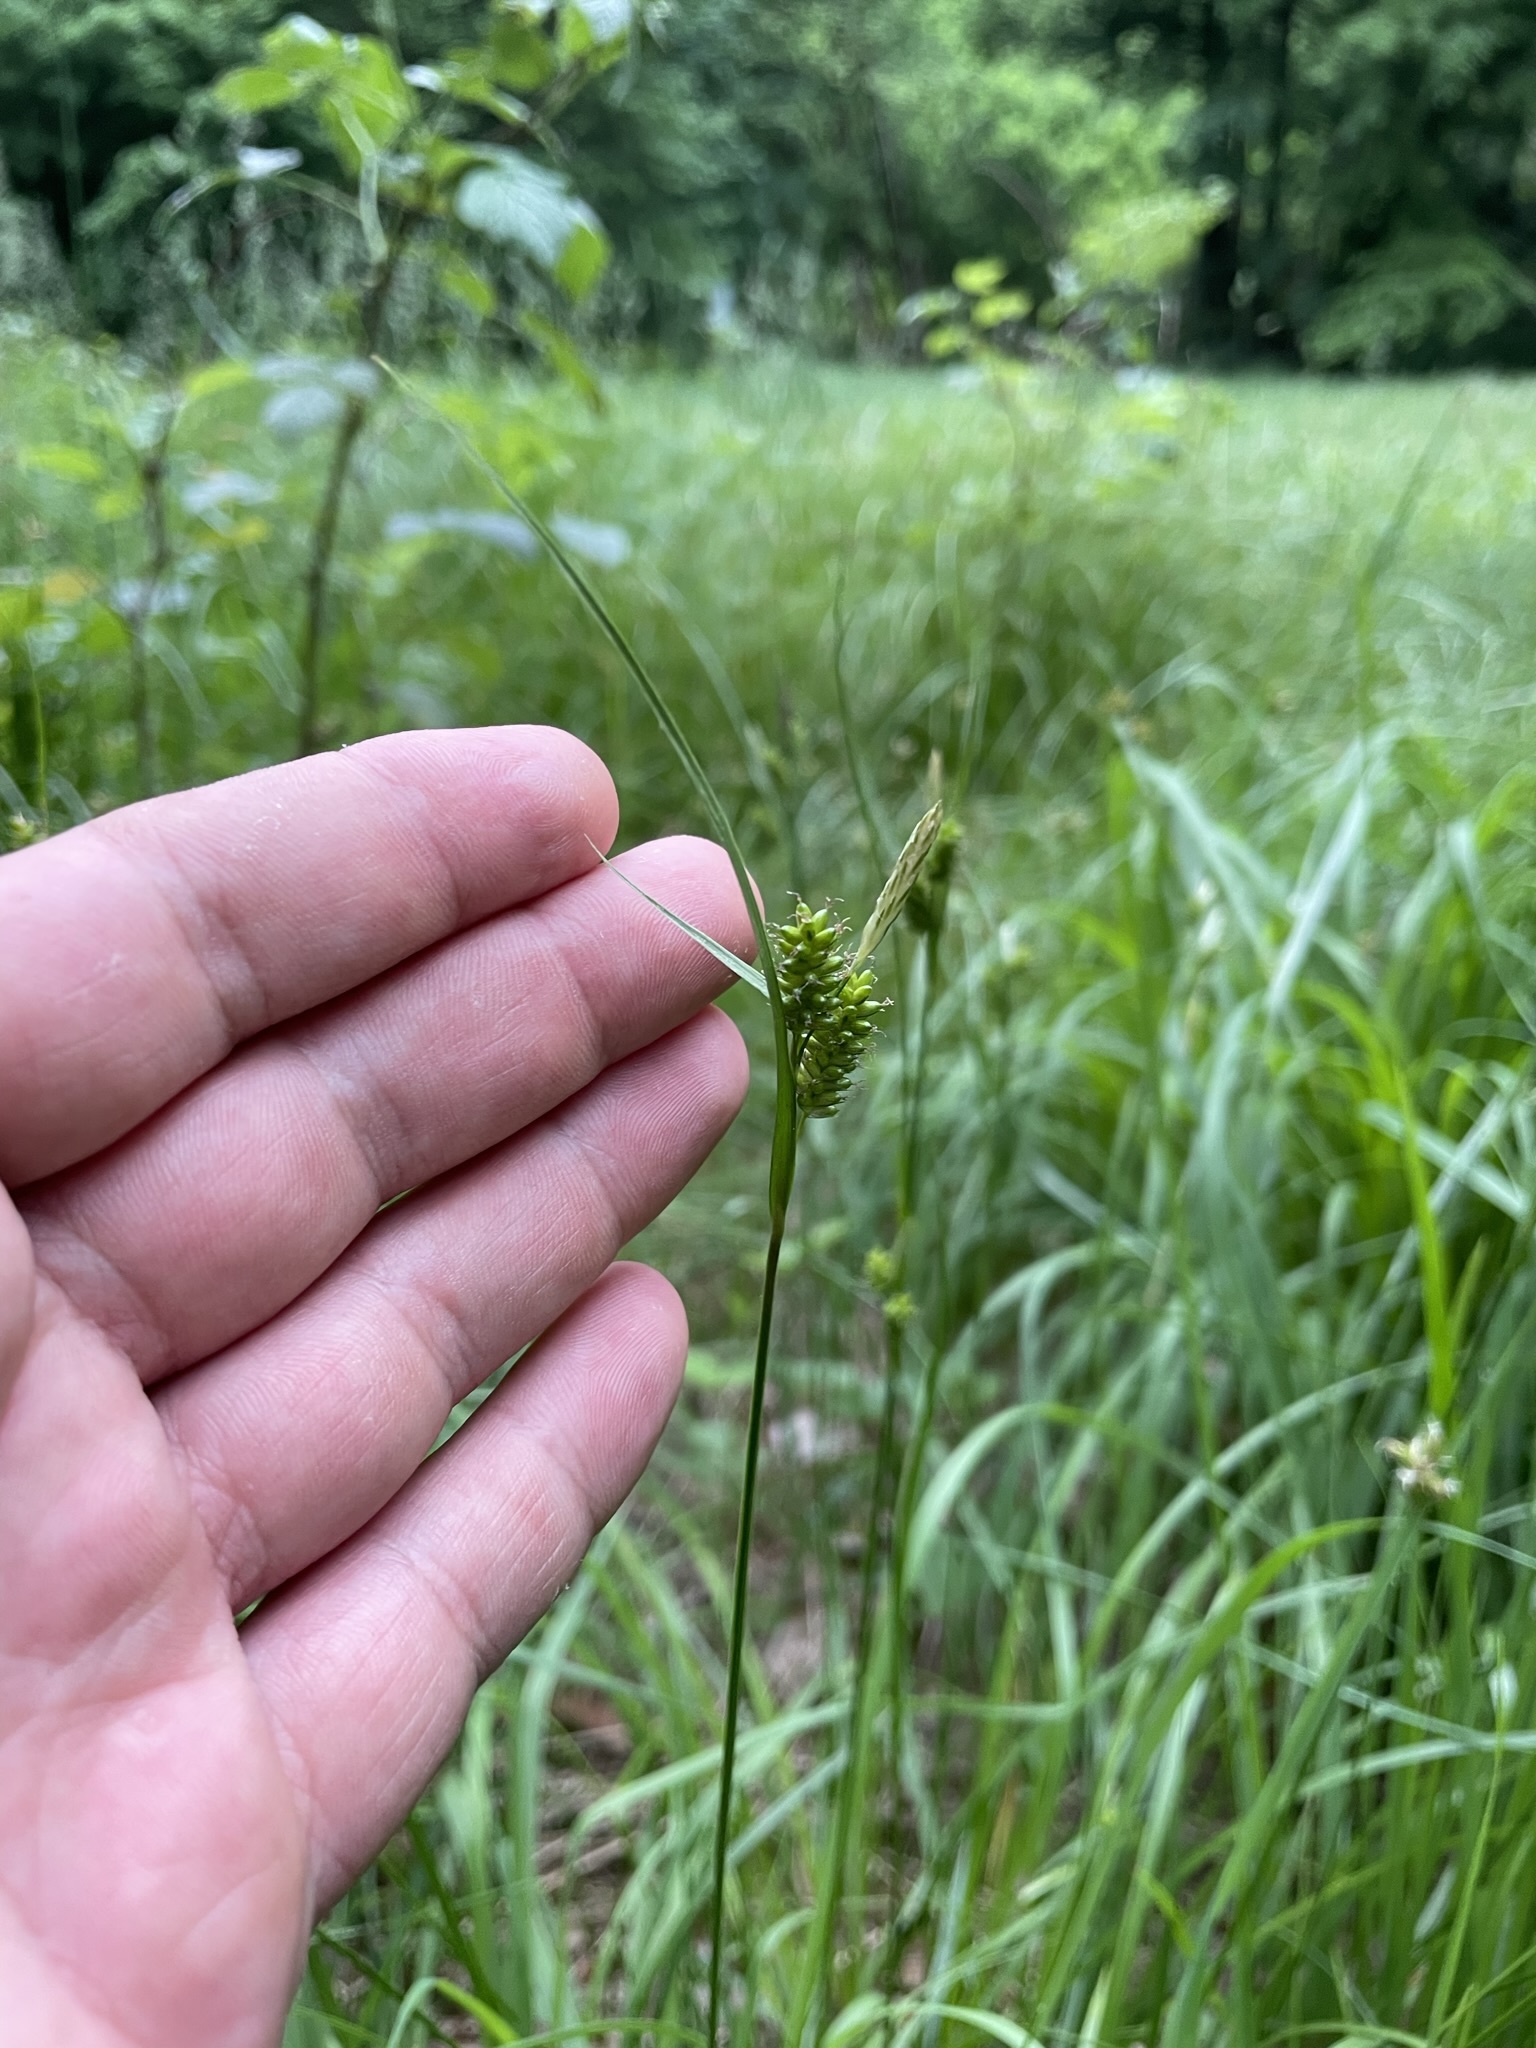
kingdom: Plantae
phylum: Tracheophyta
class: Liliopsida
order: Poales
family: Cyperaceae
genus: Carex
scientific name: Carex pallescens
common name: Pale sedge
